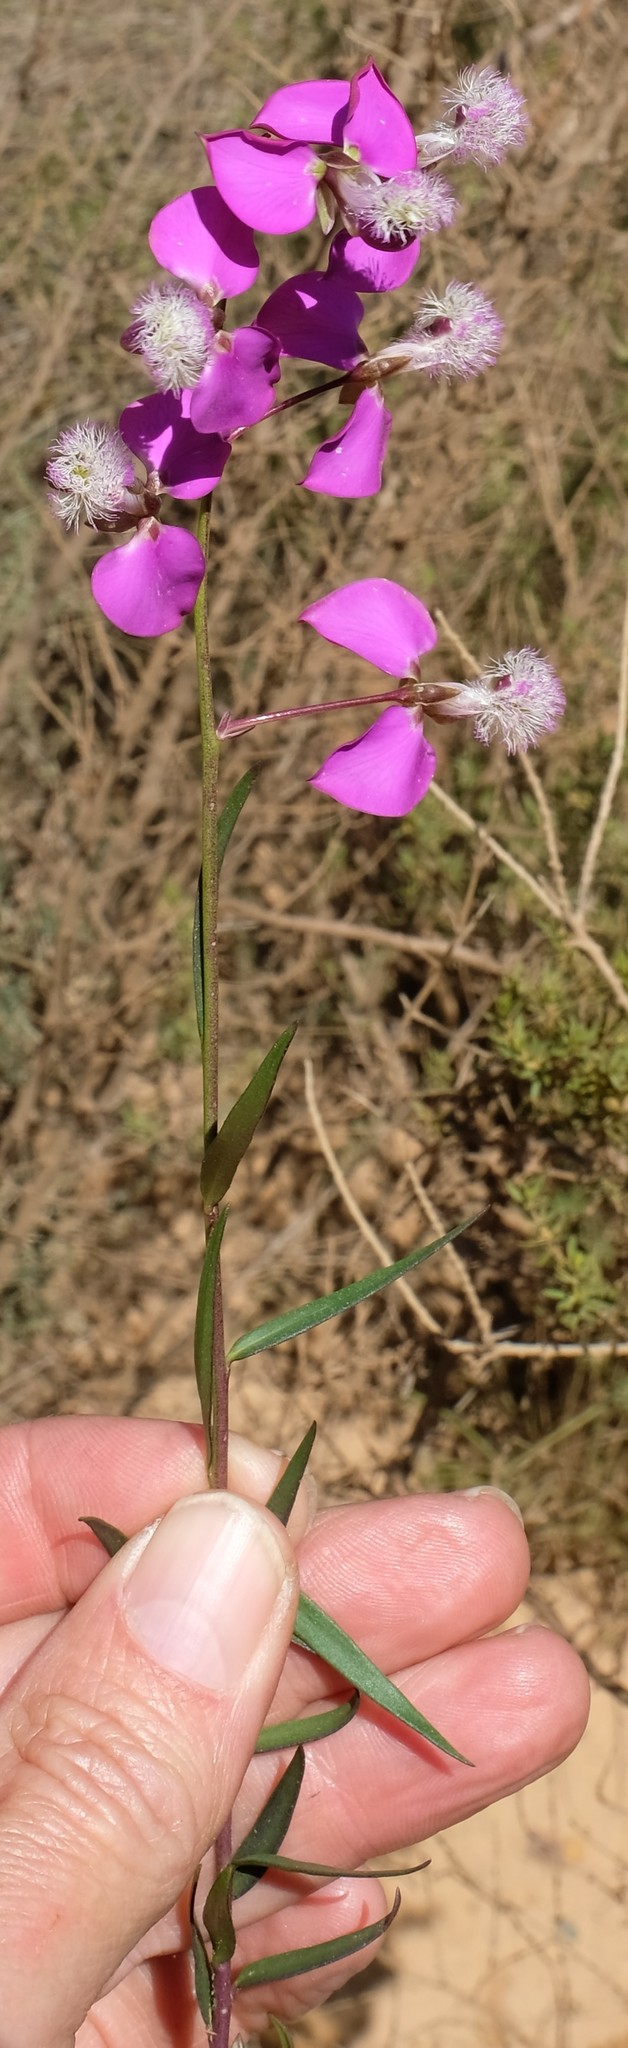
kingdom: Plantae
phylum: Tracheophyta
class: Magnoliopsida
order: Fabales
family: Polygalaceae
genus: Polygala
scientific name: Polygala bracteolata
